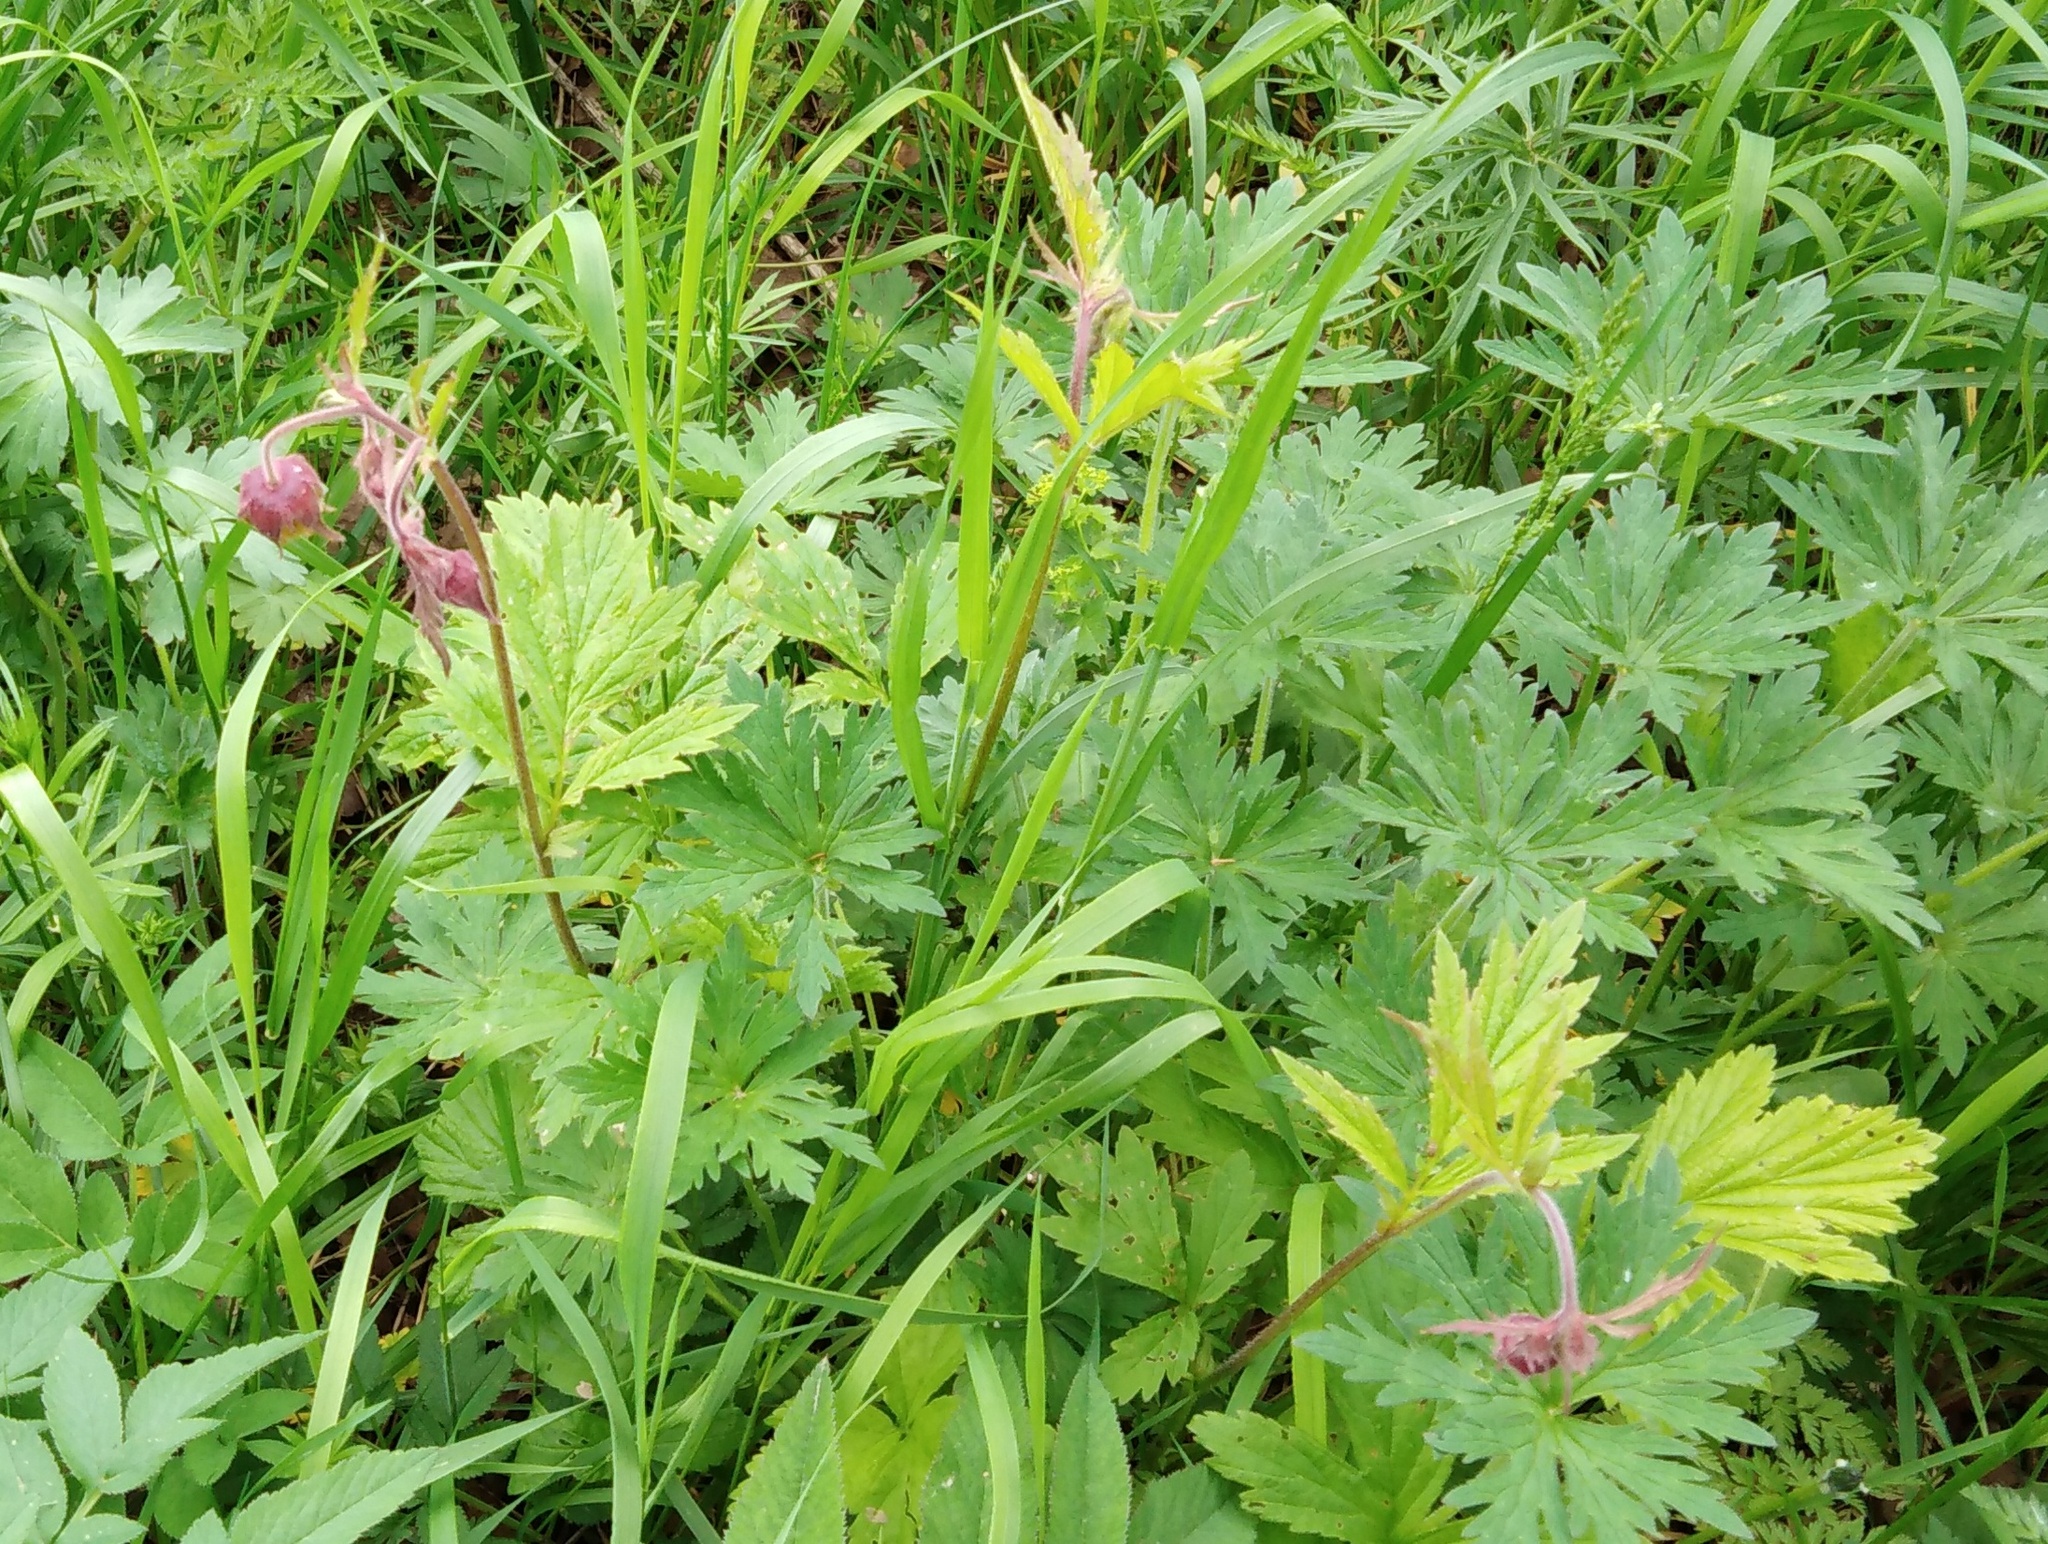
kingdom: Plantae
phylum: Tracheophyta
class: Magnoliopsida
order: Rosales
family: Rosaceae
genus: Geum
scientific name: Geum rivale
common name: Water avens
